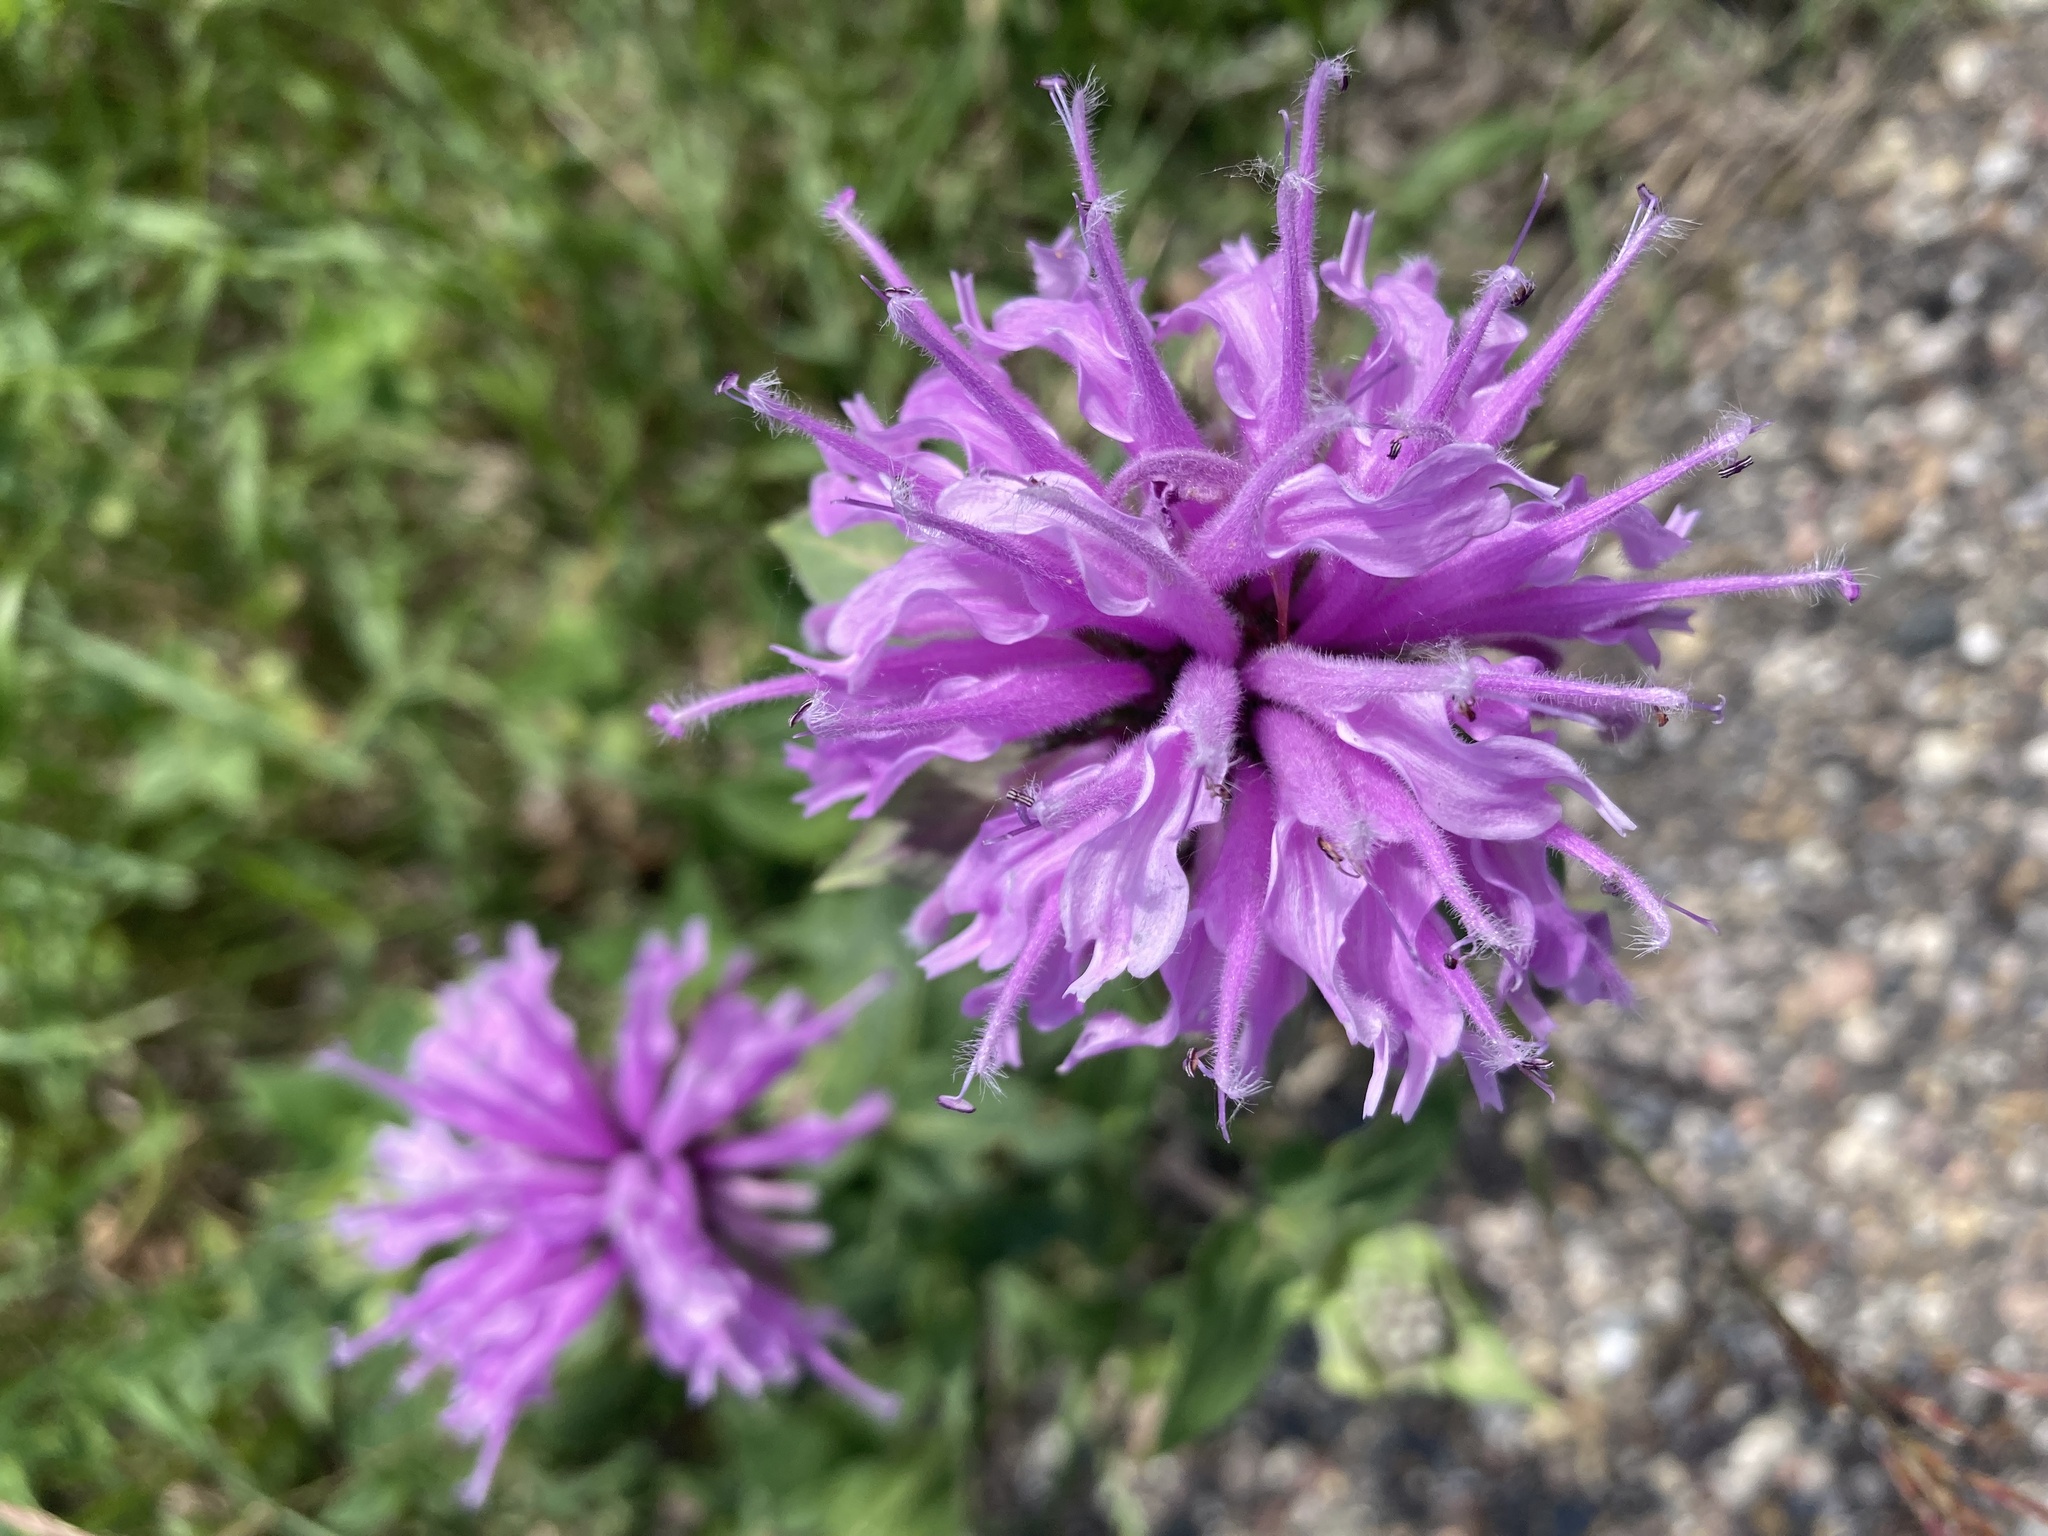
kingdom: Plantae
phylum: Tracheophyta
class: Magnoliopsida
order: Lamiales
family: Lamiaceae
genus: Monarda
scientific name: Monarda fistulosa
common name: Purple beebalm
